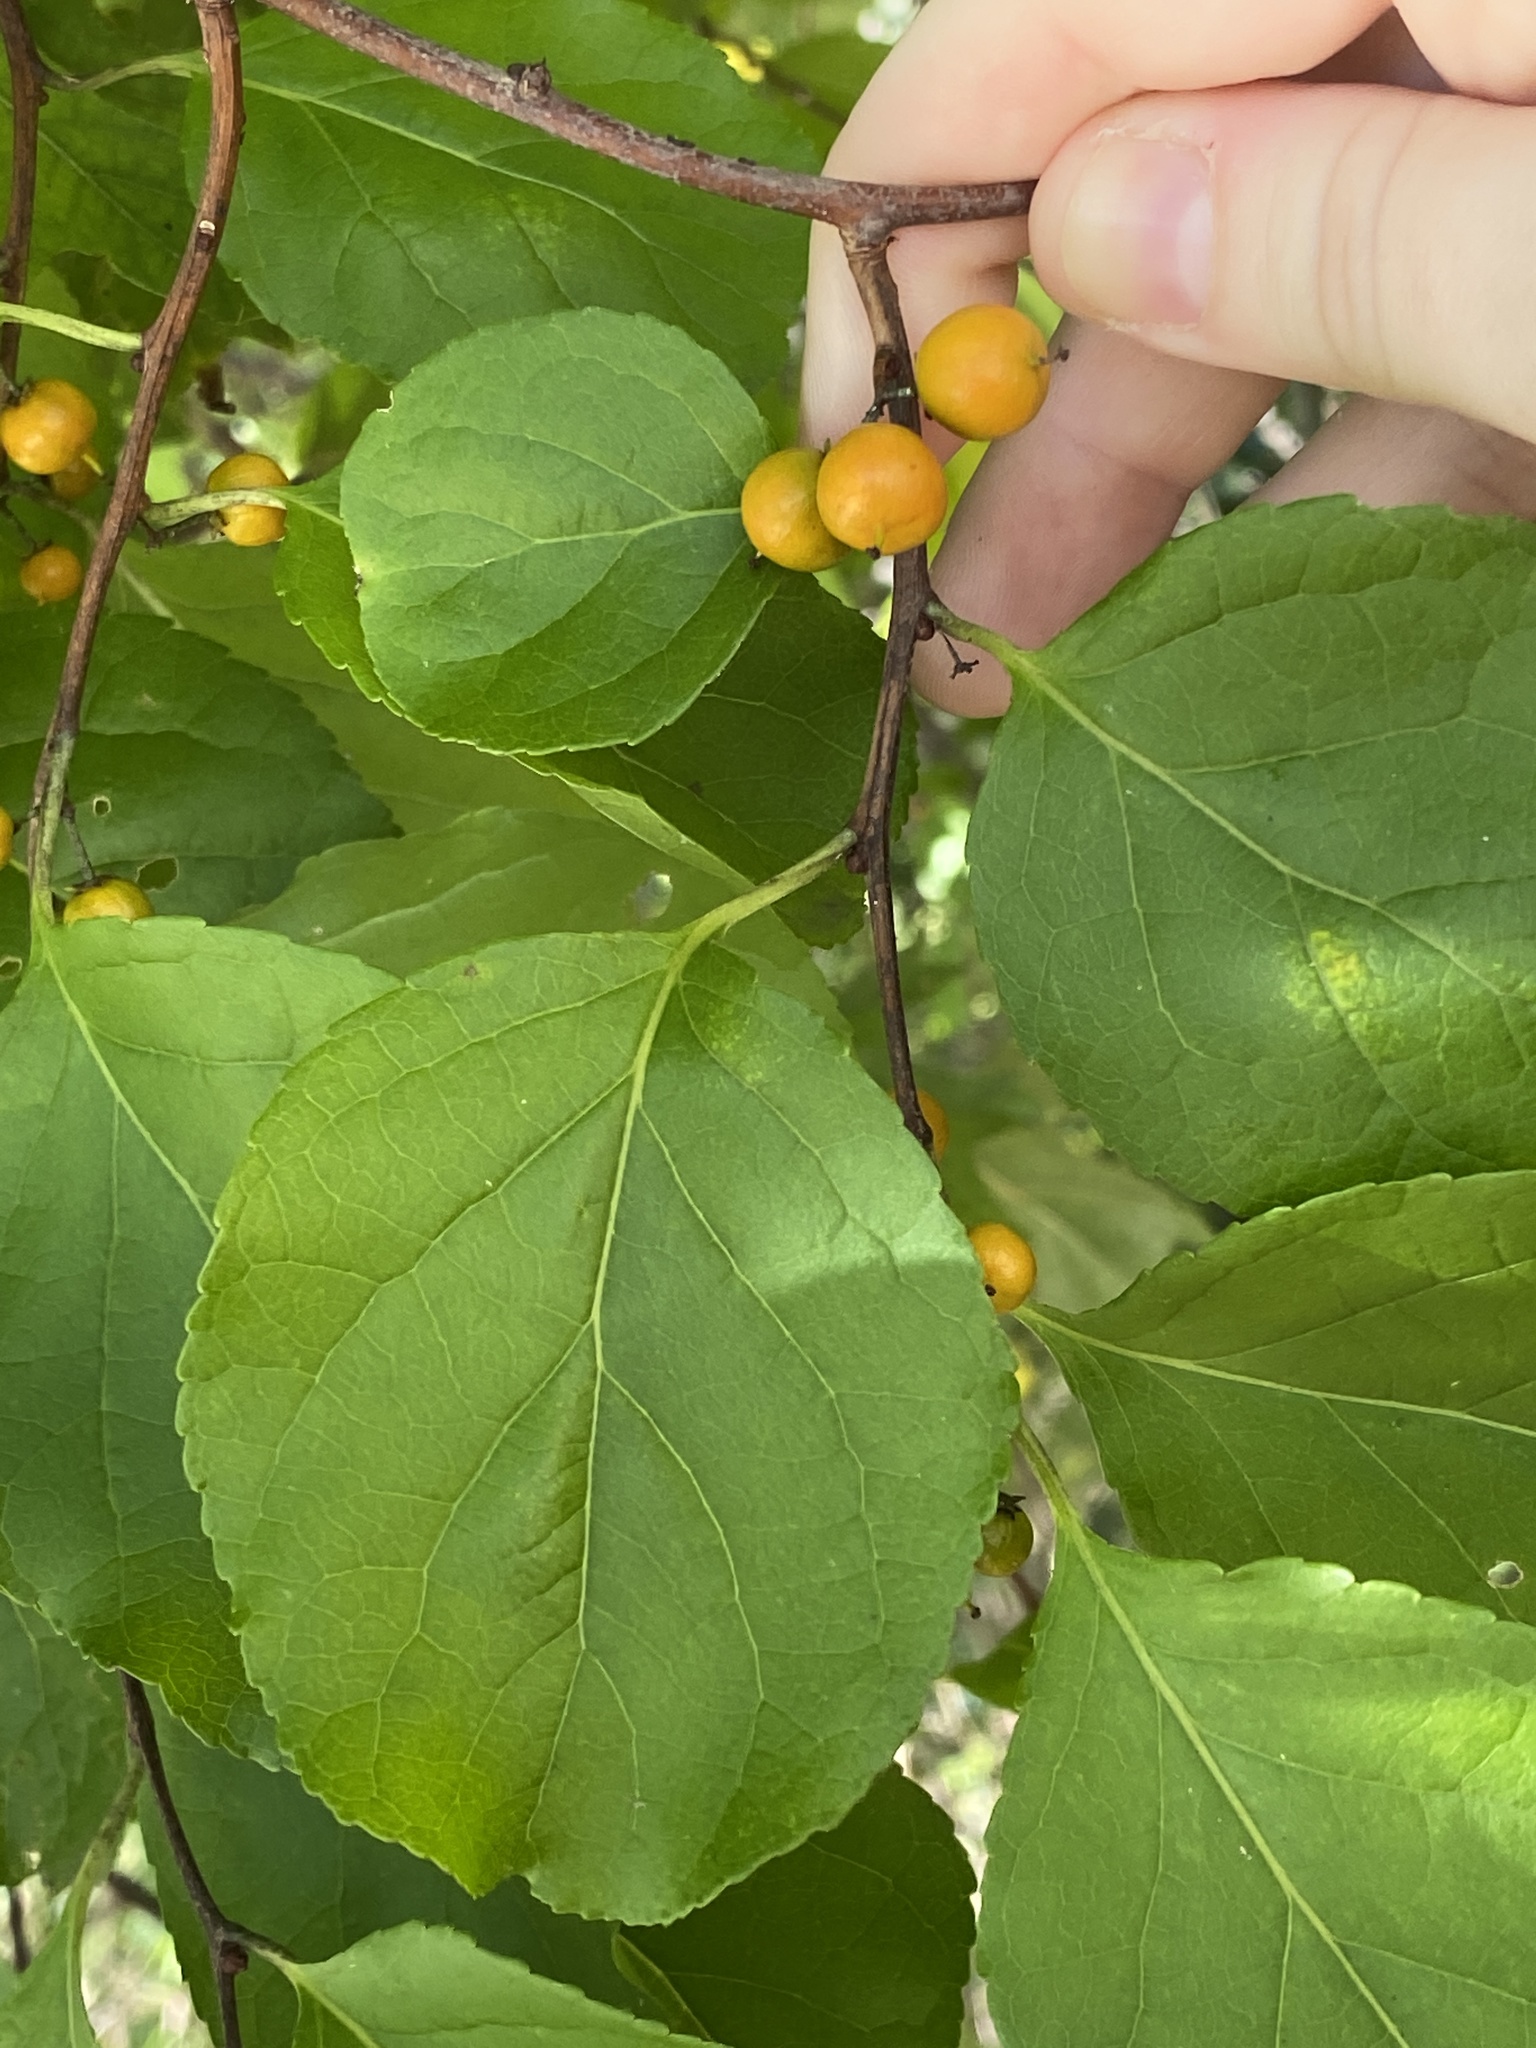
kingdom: Plantae
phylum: Tracheophyta
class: Magnoliopsida
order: Celastrales
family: Celastraceae
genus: Celastrus
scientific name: Celastrus orbiculatus
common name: Oriental bittersweet
